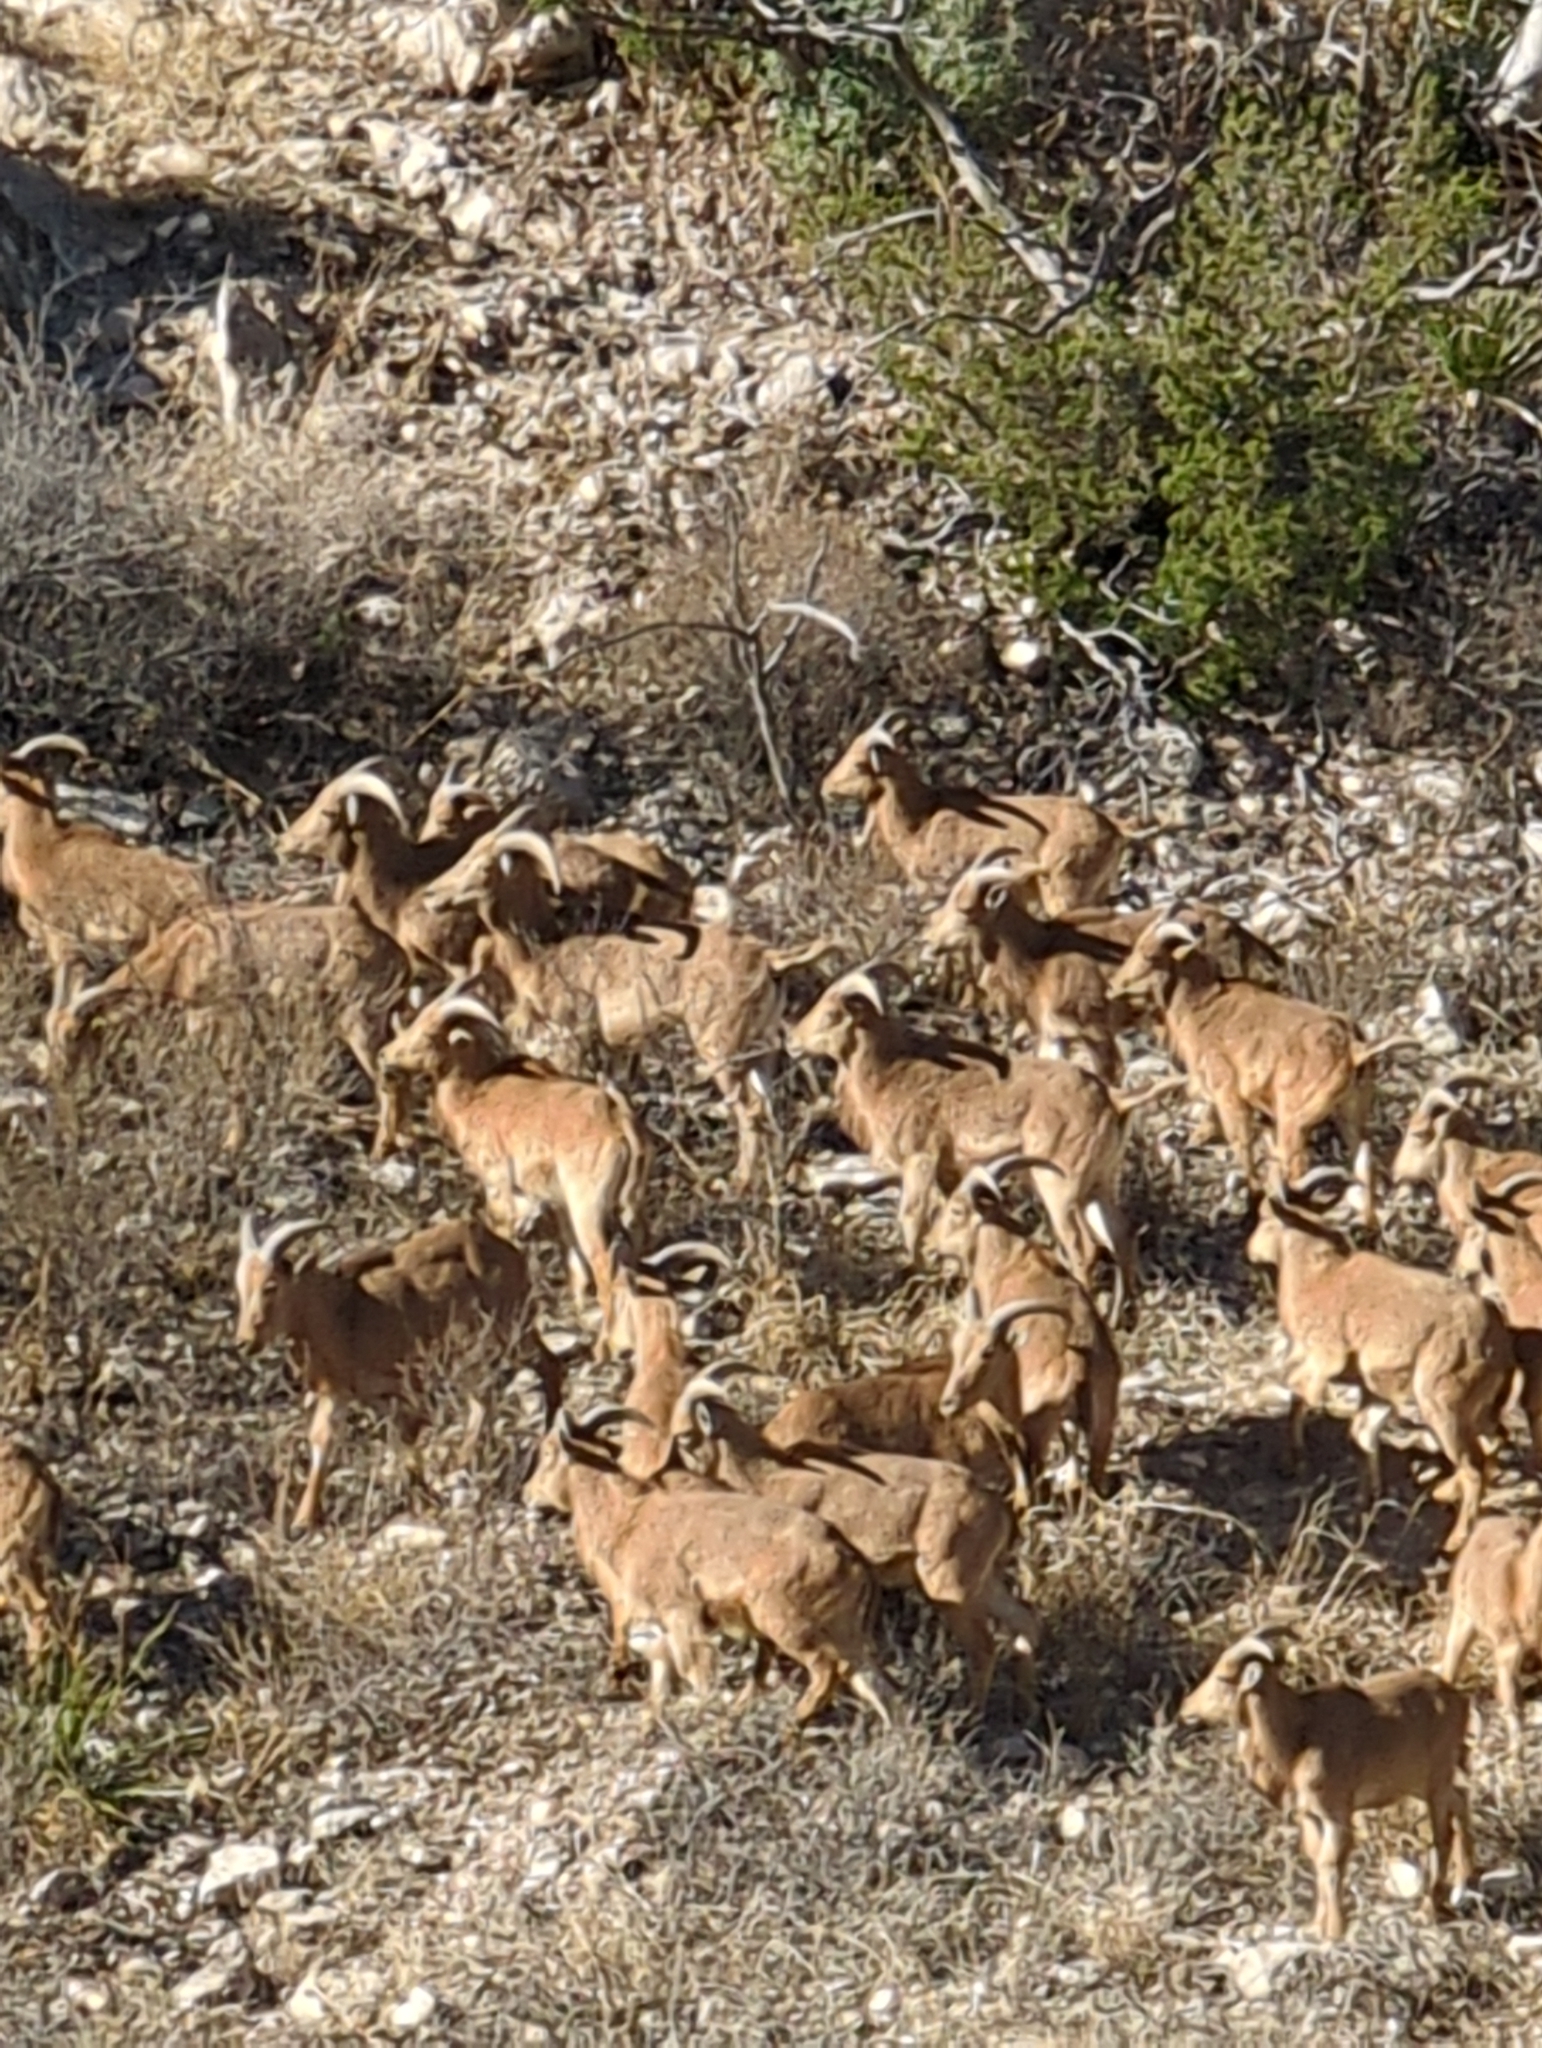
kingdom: Animalia
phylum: Chordata
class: Mammalia
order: Artiodactyla
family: Bovidae
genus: Ammotragus
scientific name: Ammotragus lervia
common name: Barbary sheep
